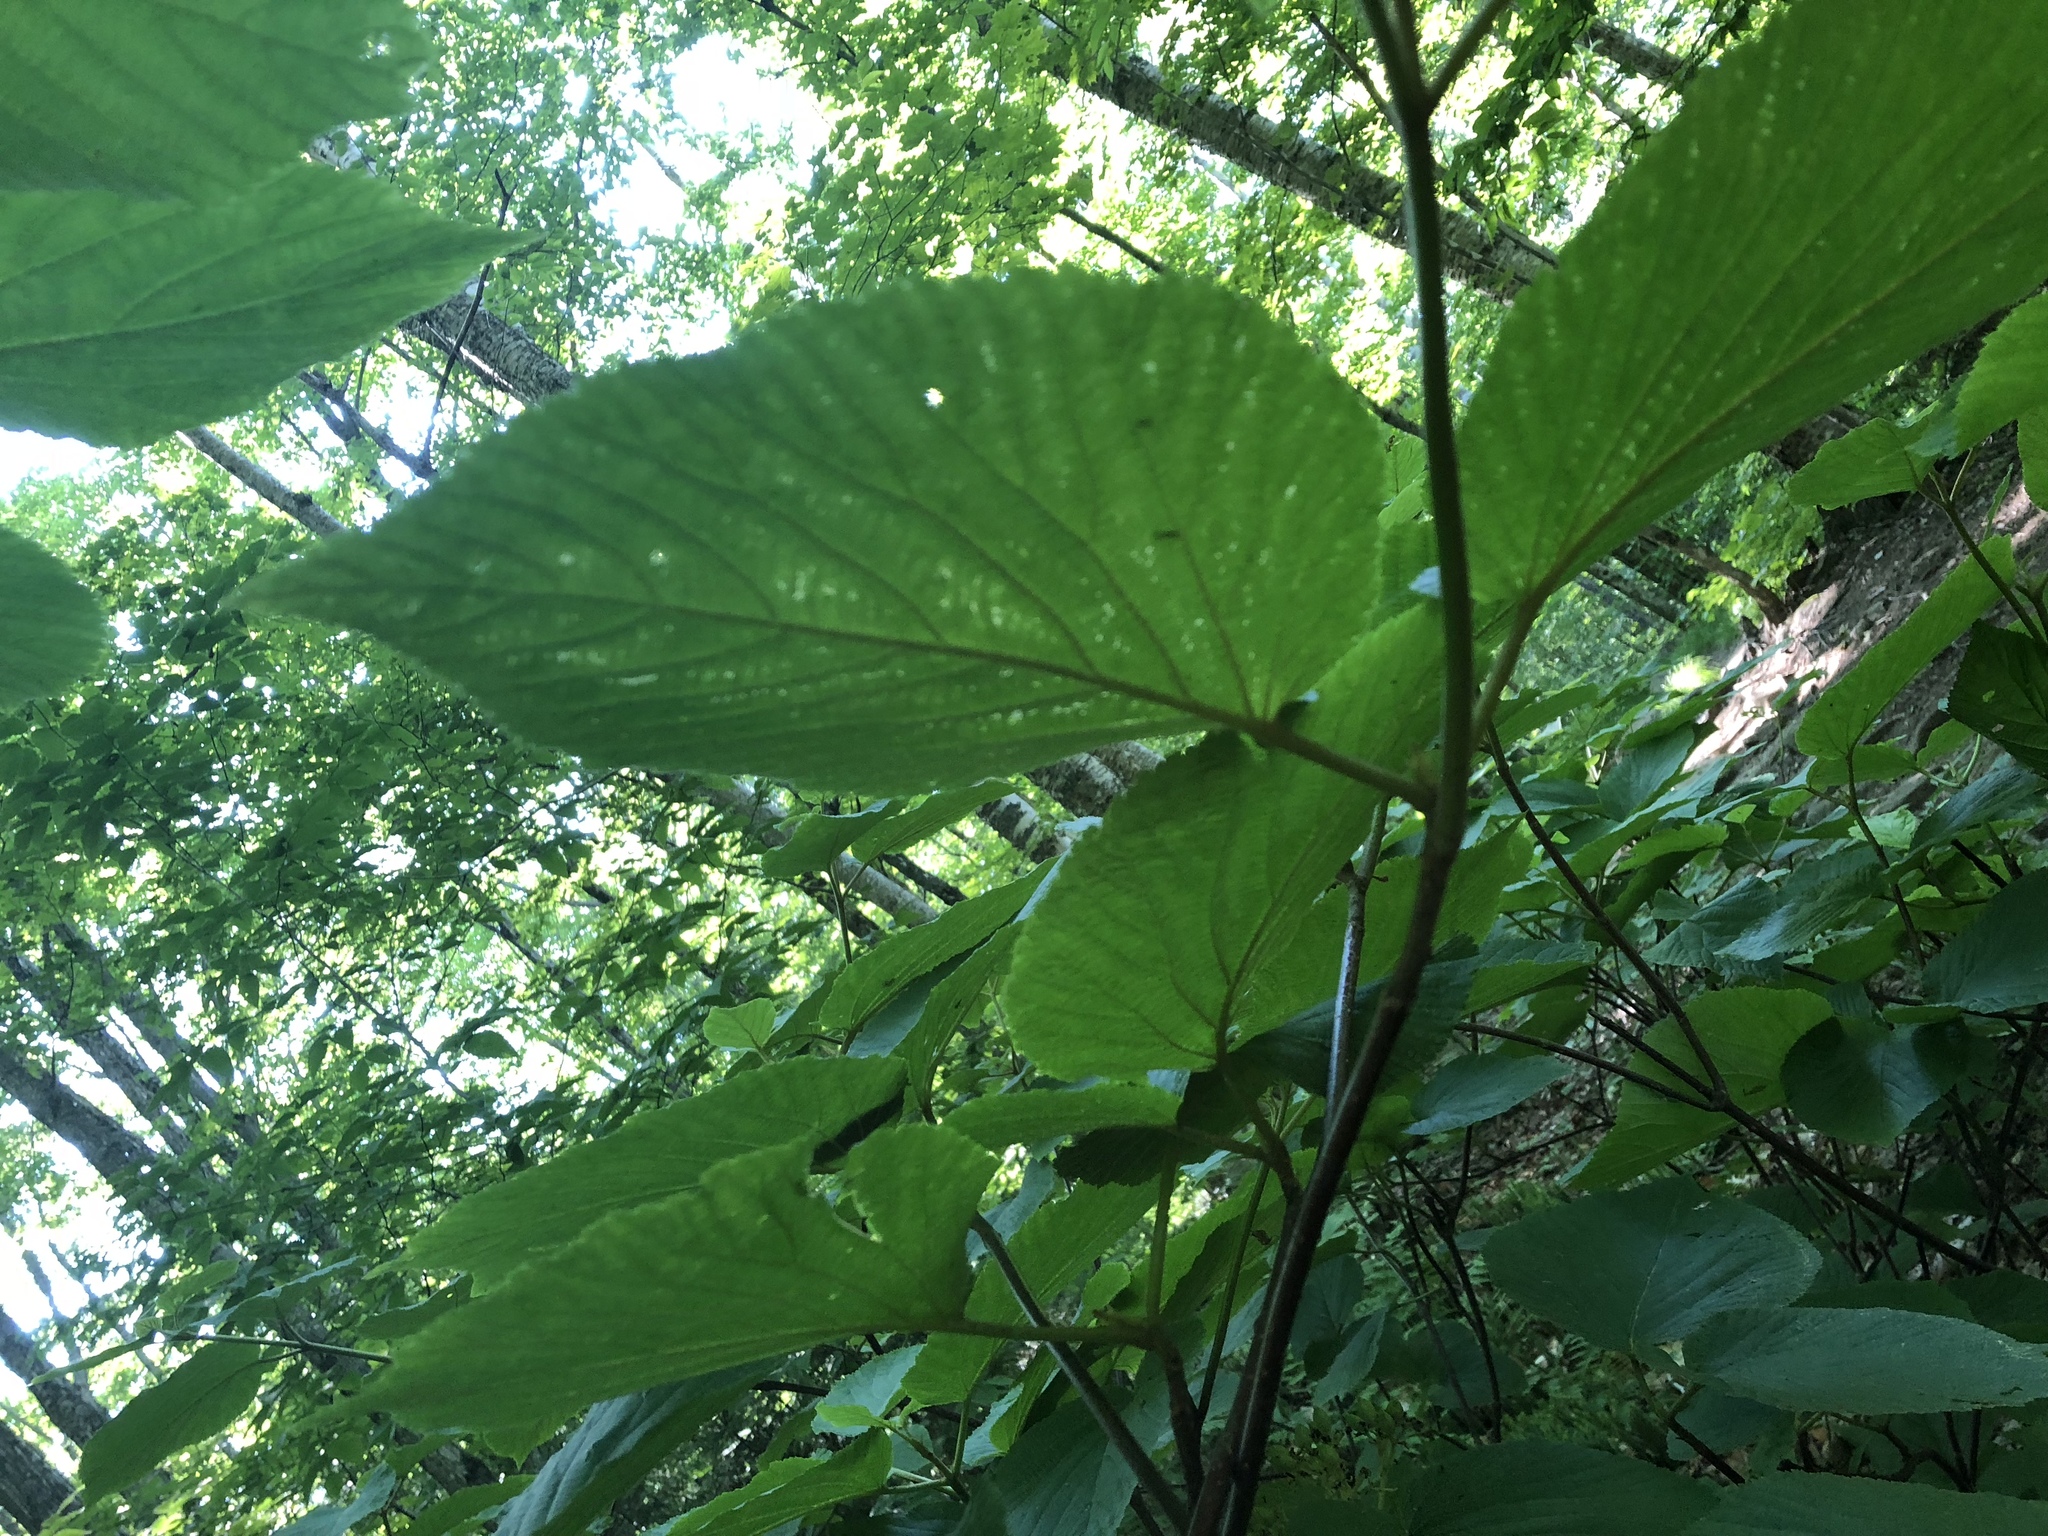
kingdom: Plantae
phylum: Tracheophyta
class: Magnoliopsida
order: Dipsacales
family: Viburnaceae
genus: Viburnum
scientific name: Viburnum lantanoides
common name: Hobblebush
